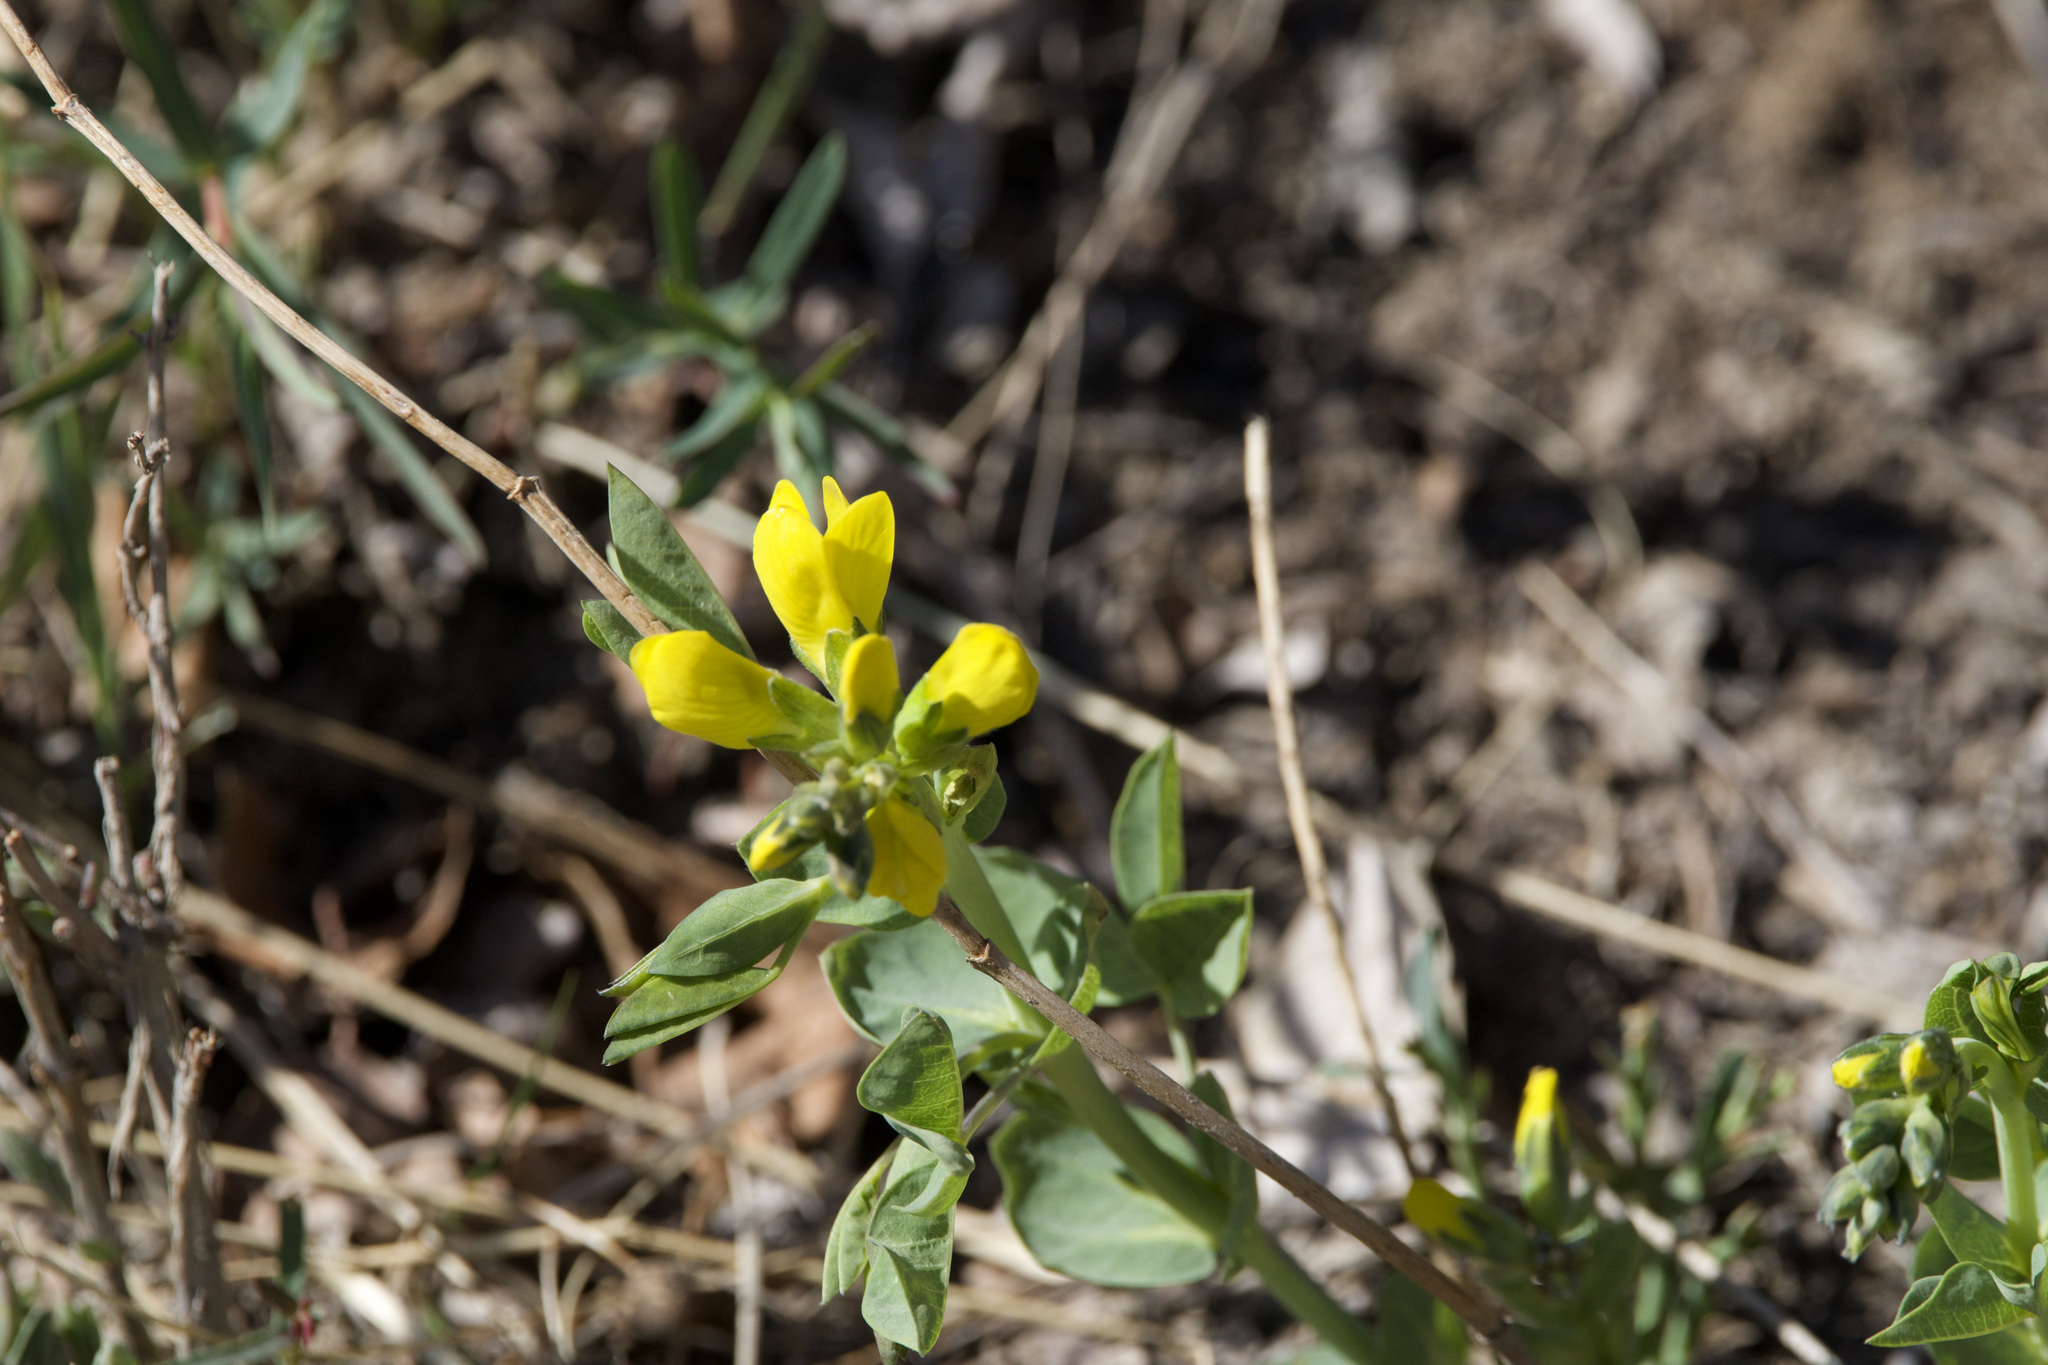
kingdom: Plantae
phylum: Tracheophyta
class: Magnoliopsida
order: Fabales
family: Fabaceae
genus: Thermopsis
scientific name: Thermopsis rhombifolia
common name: Circle-pod-pea
